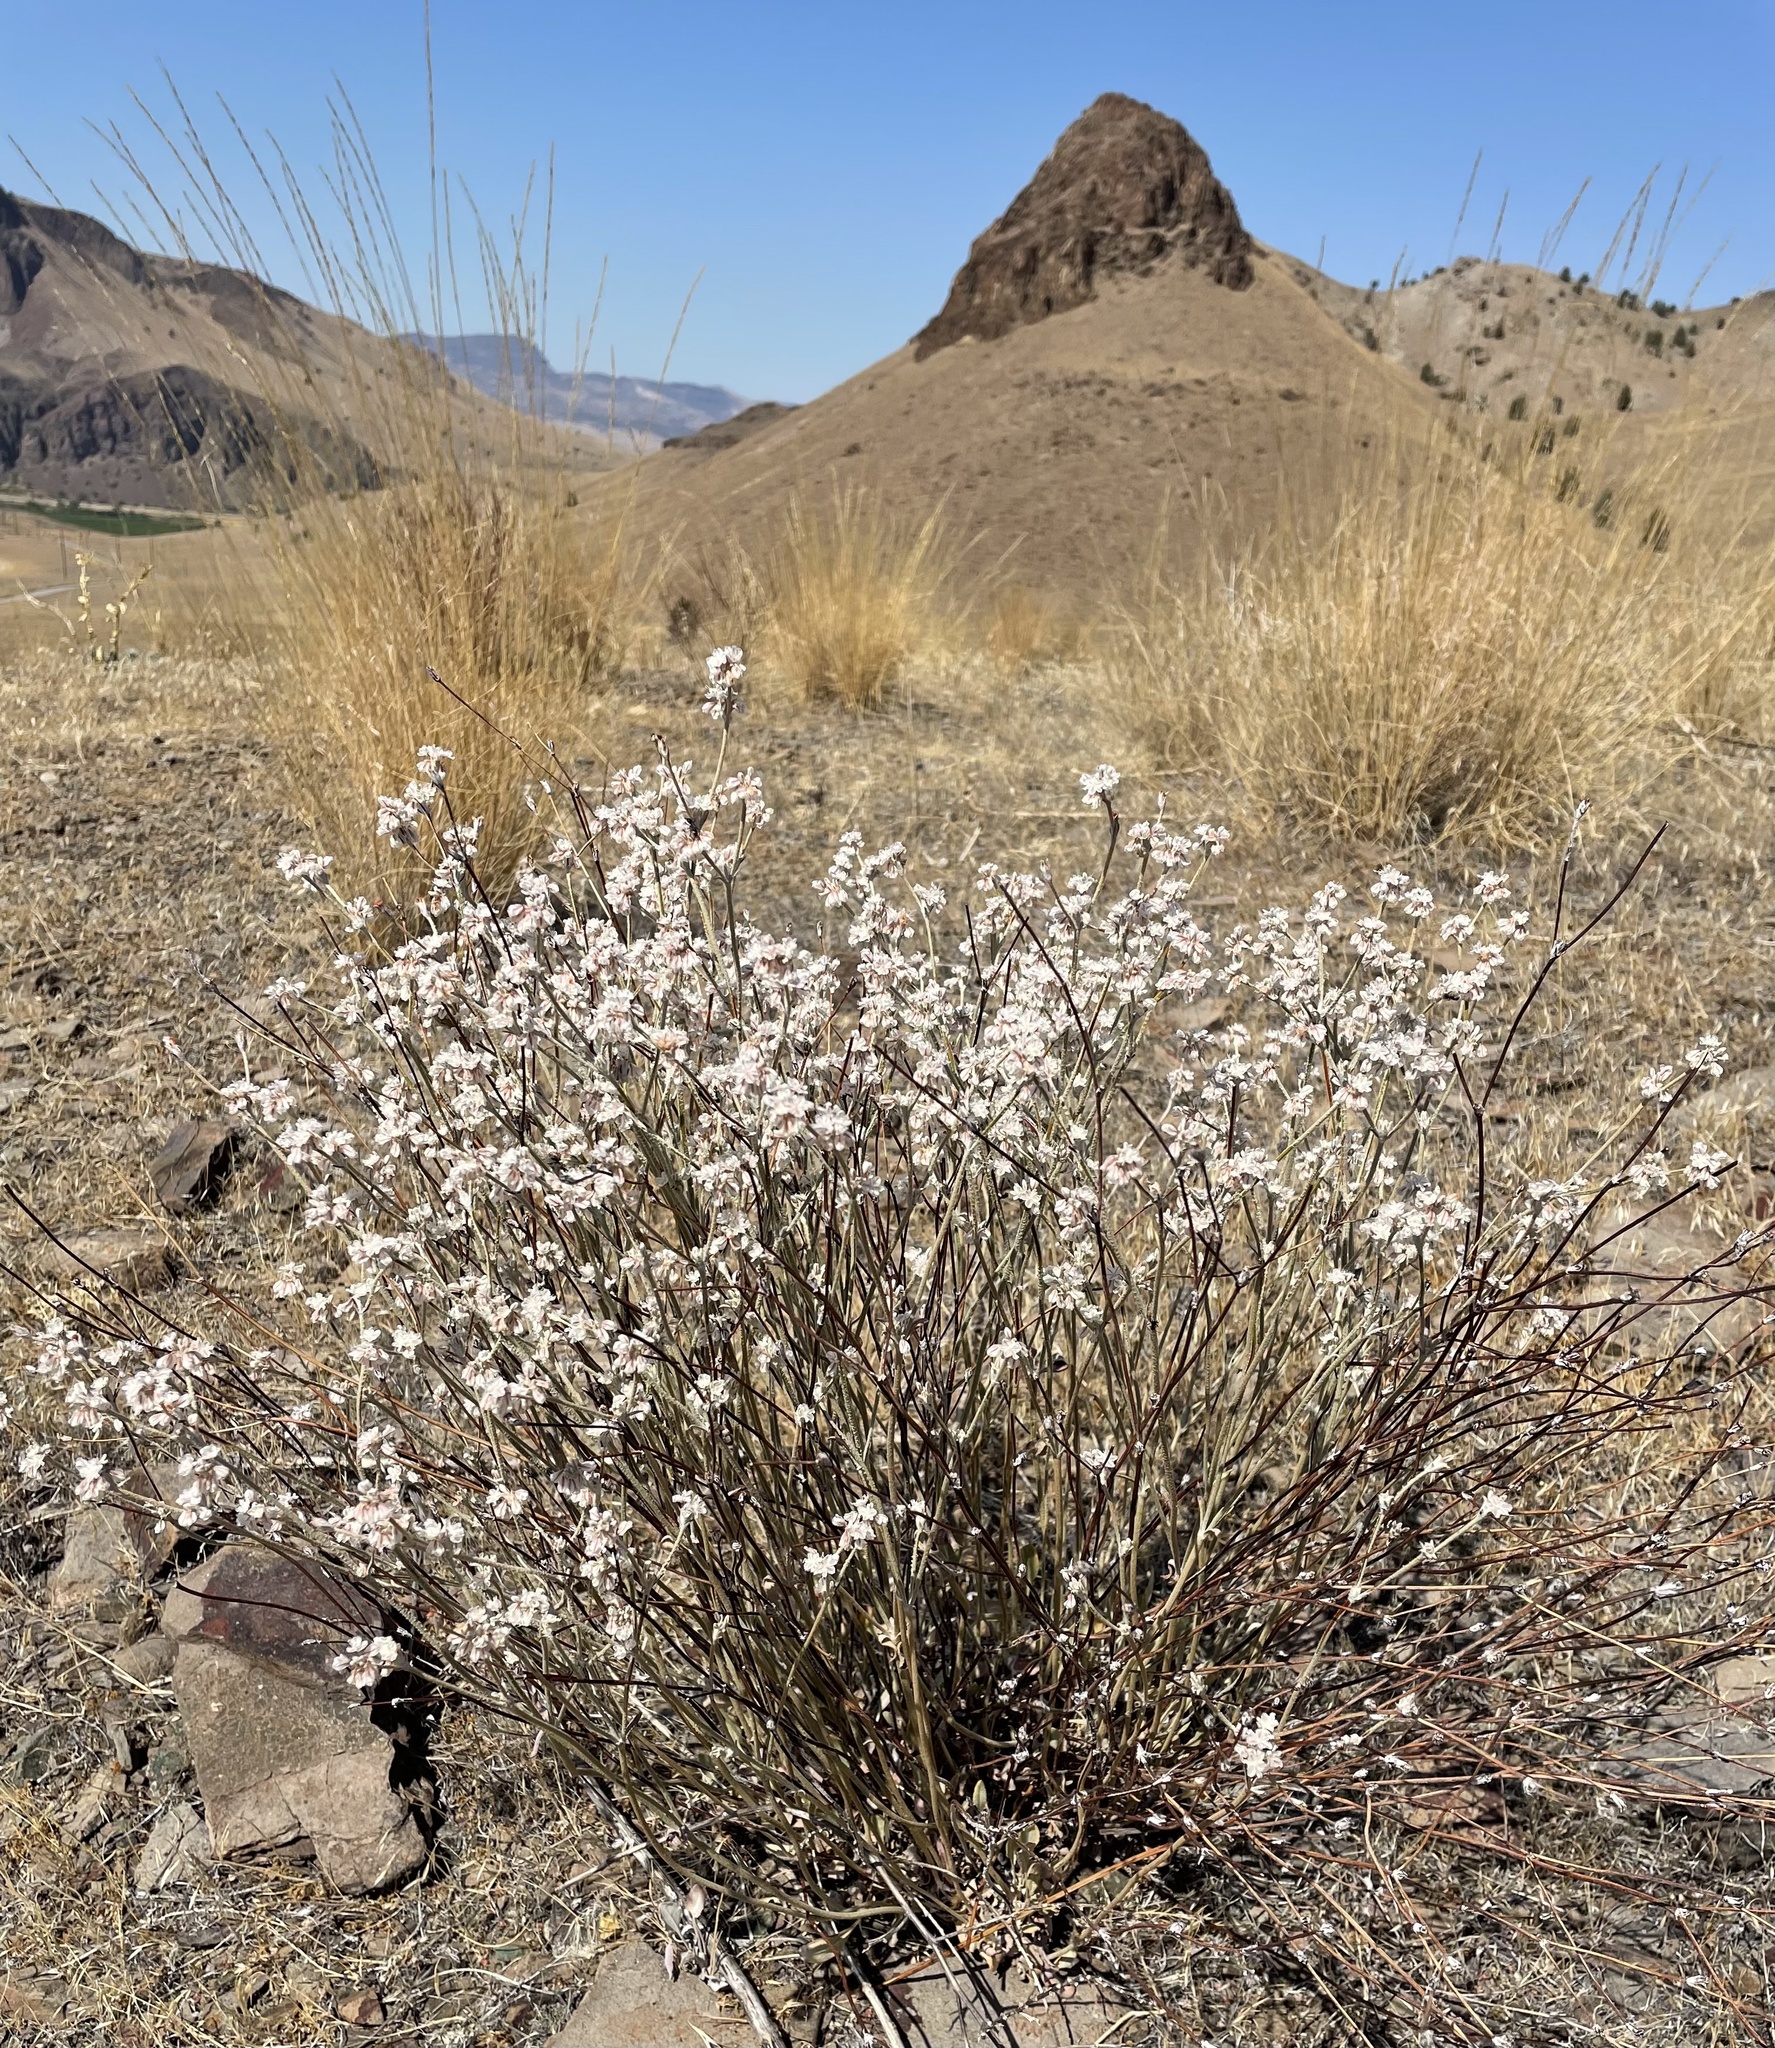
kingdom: Plantae
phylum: Tracheophyta
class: Magnoliopsida
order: Caryophyllales
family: Polygonaceae
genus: Eriogonum
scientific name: Eriogonum niveum
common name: Snow wild buckwheat
